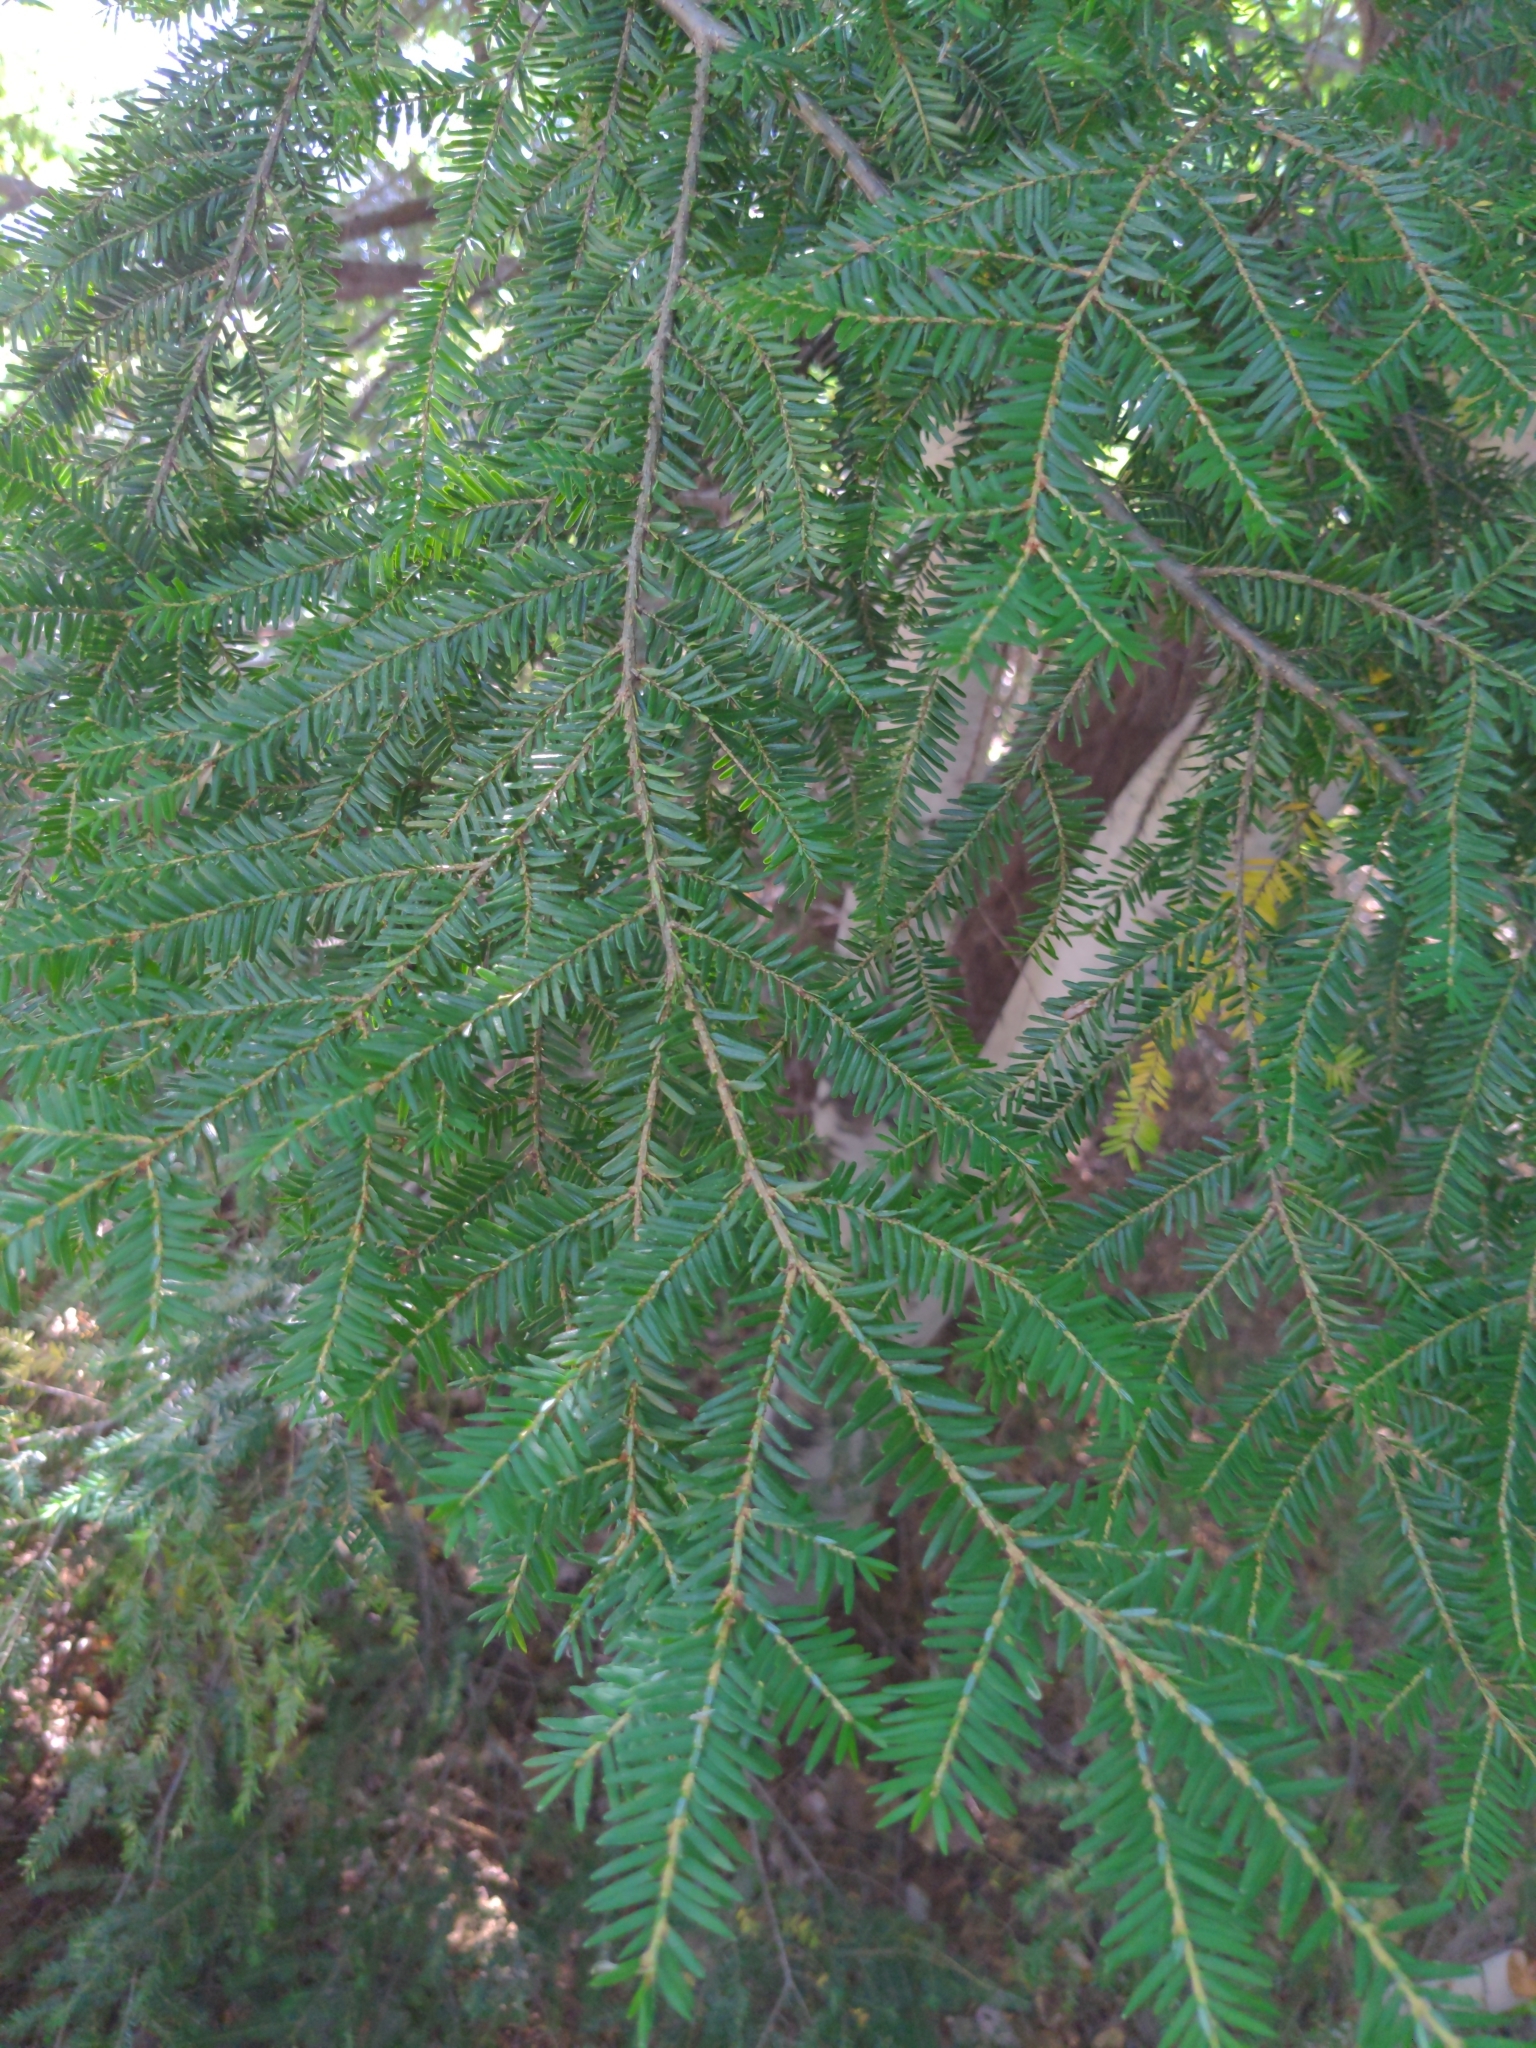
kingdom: Plantae
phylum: Tracheophyta
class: Pinopsida
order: Pinales
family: Pinaceae
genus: Tsuga
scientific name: Tsuga canadensis
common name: Eastern hemlock
